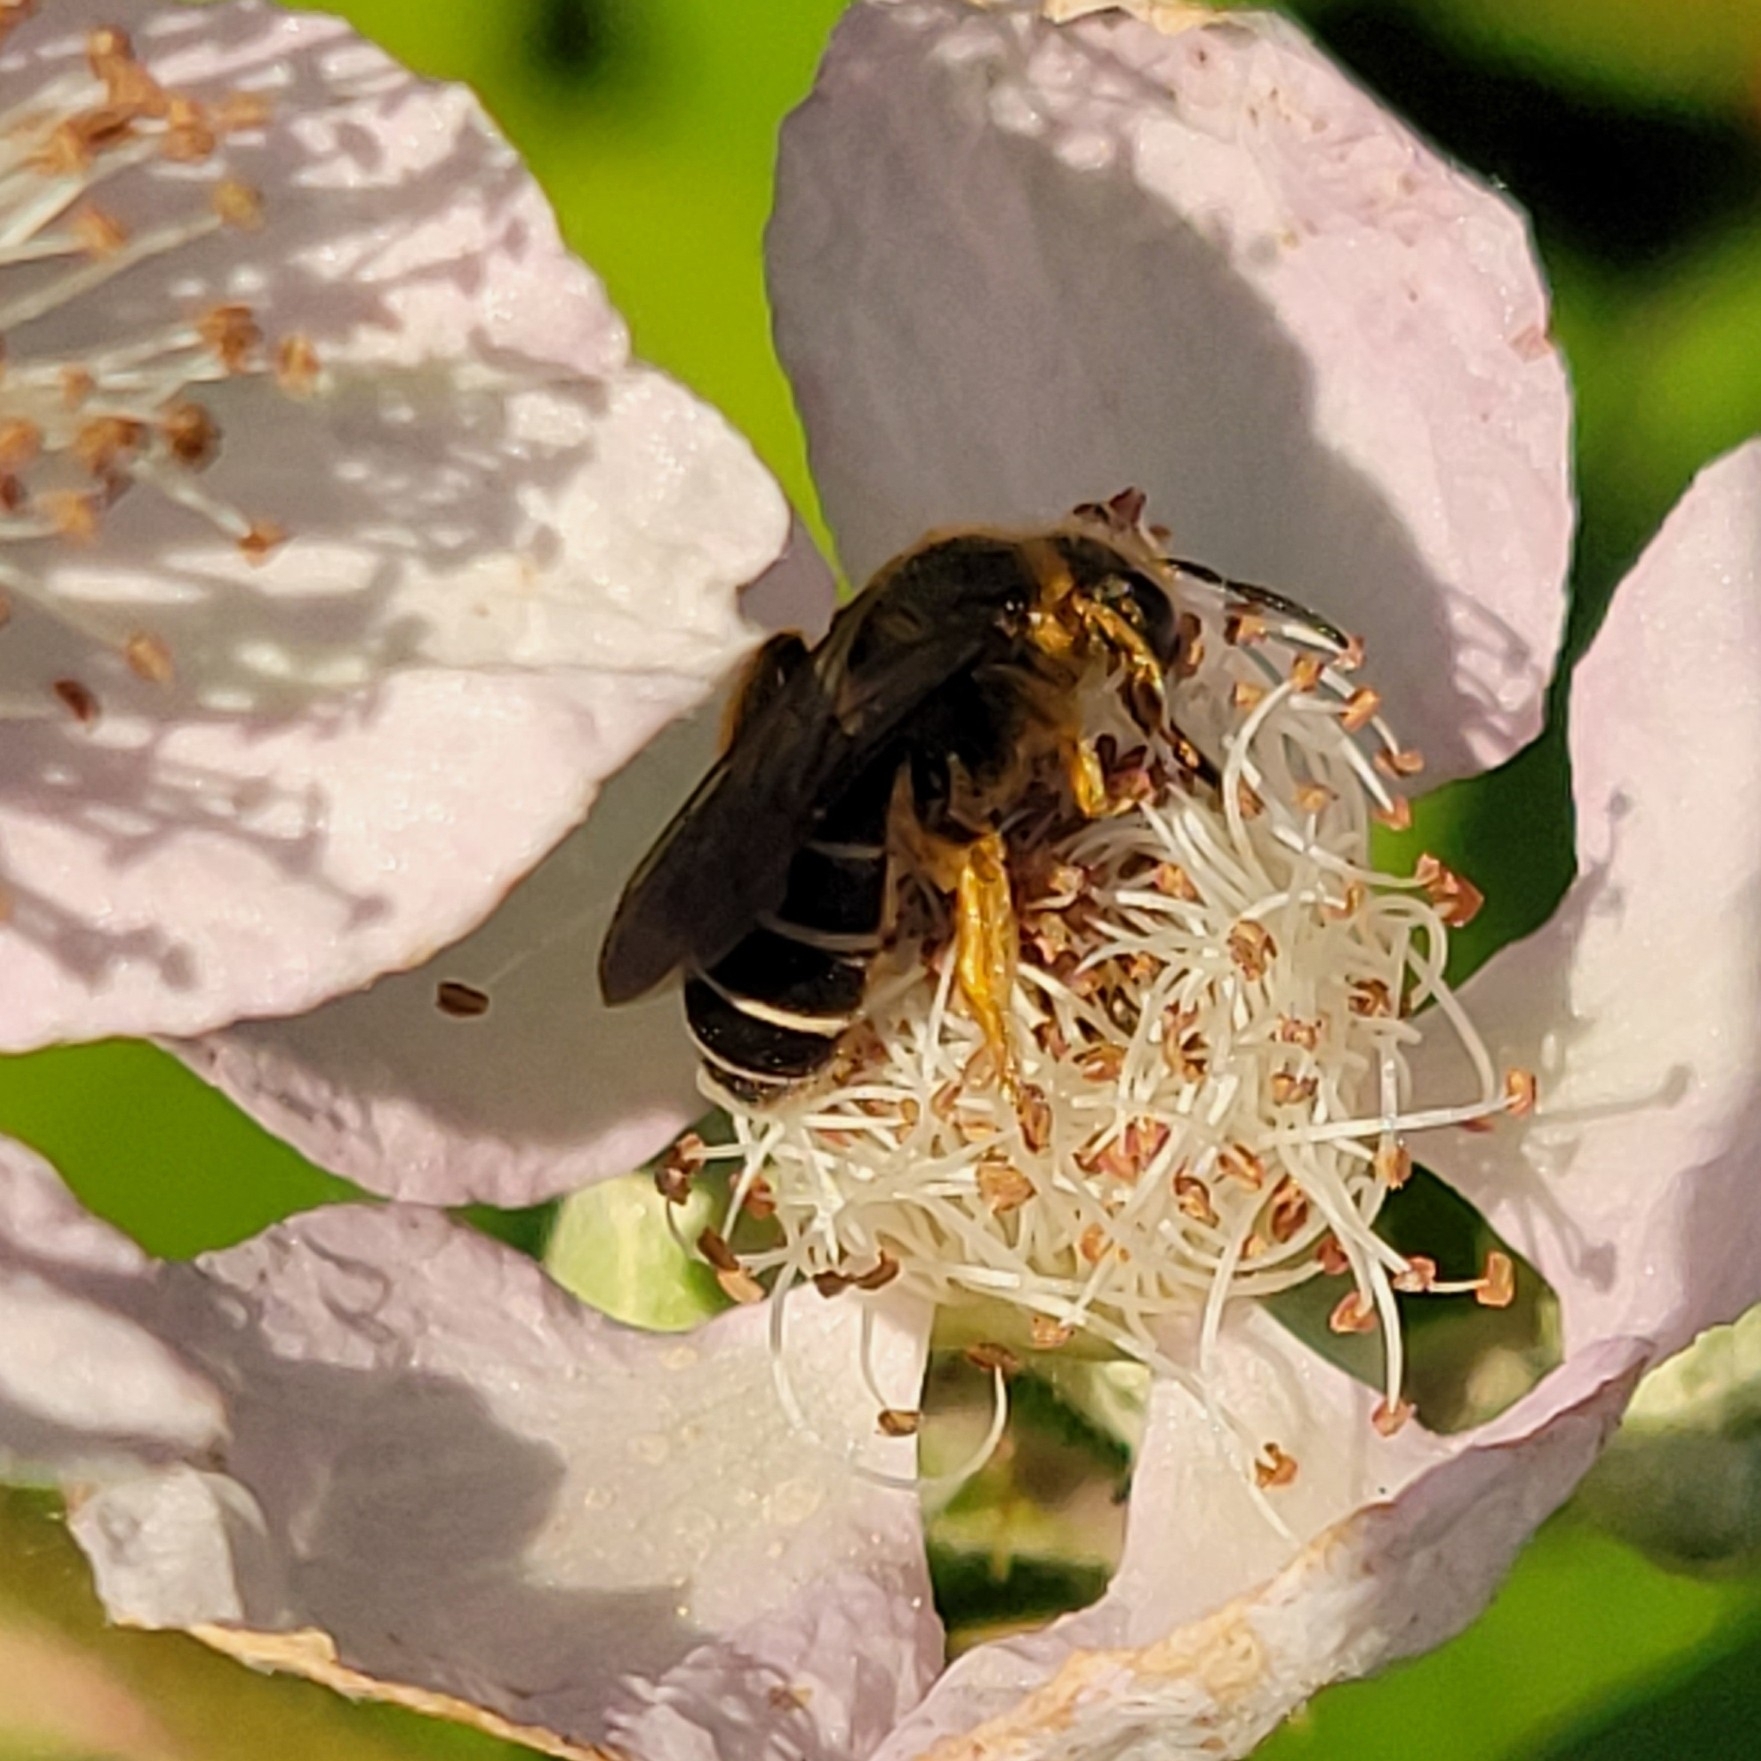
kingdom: Animalia
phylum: Arthropoda
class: Insecta
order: Hymenoptera
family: Halictidae
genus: Halictus
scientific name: Halictus rubicundus
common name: Orange-legged furrow bee
